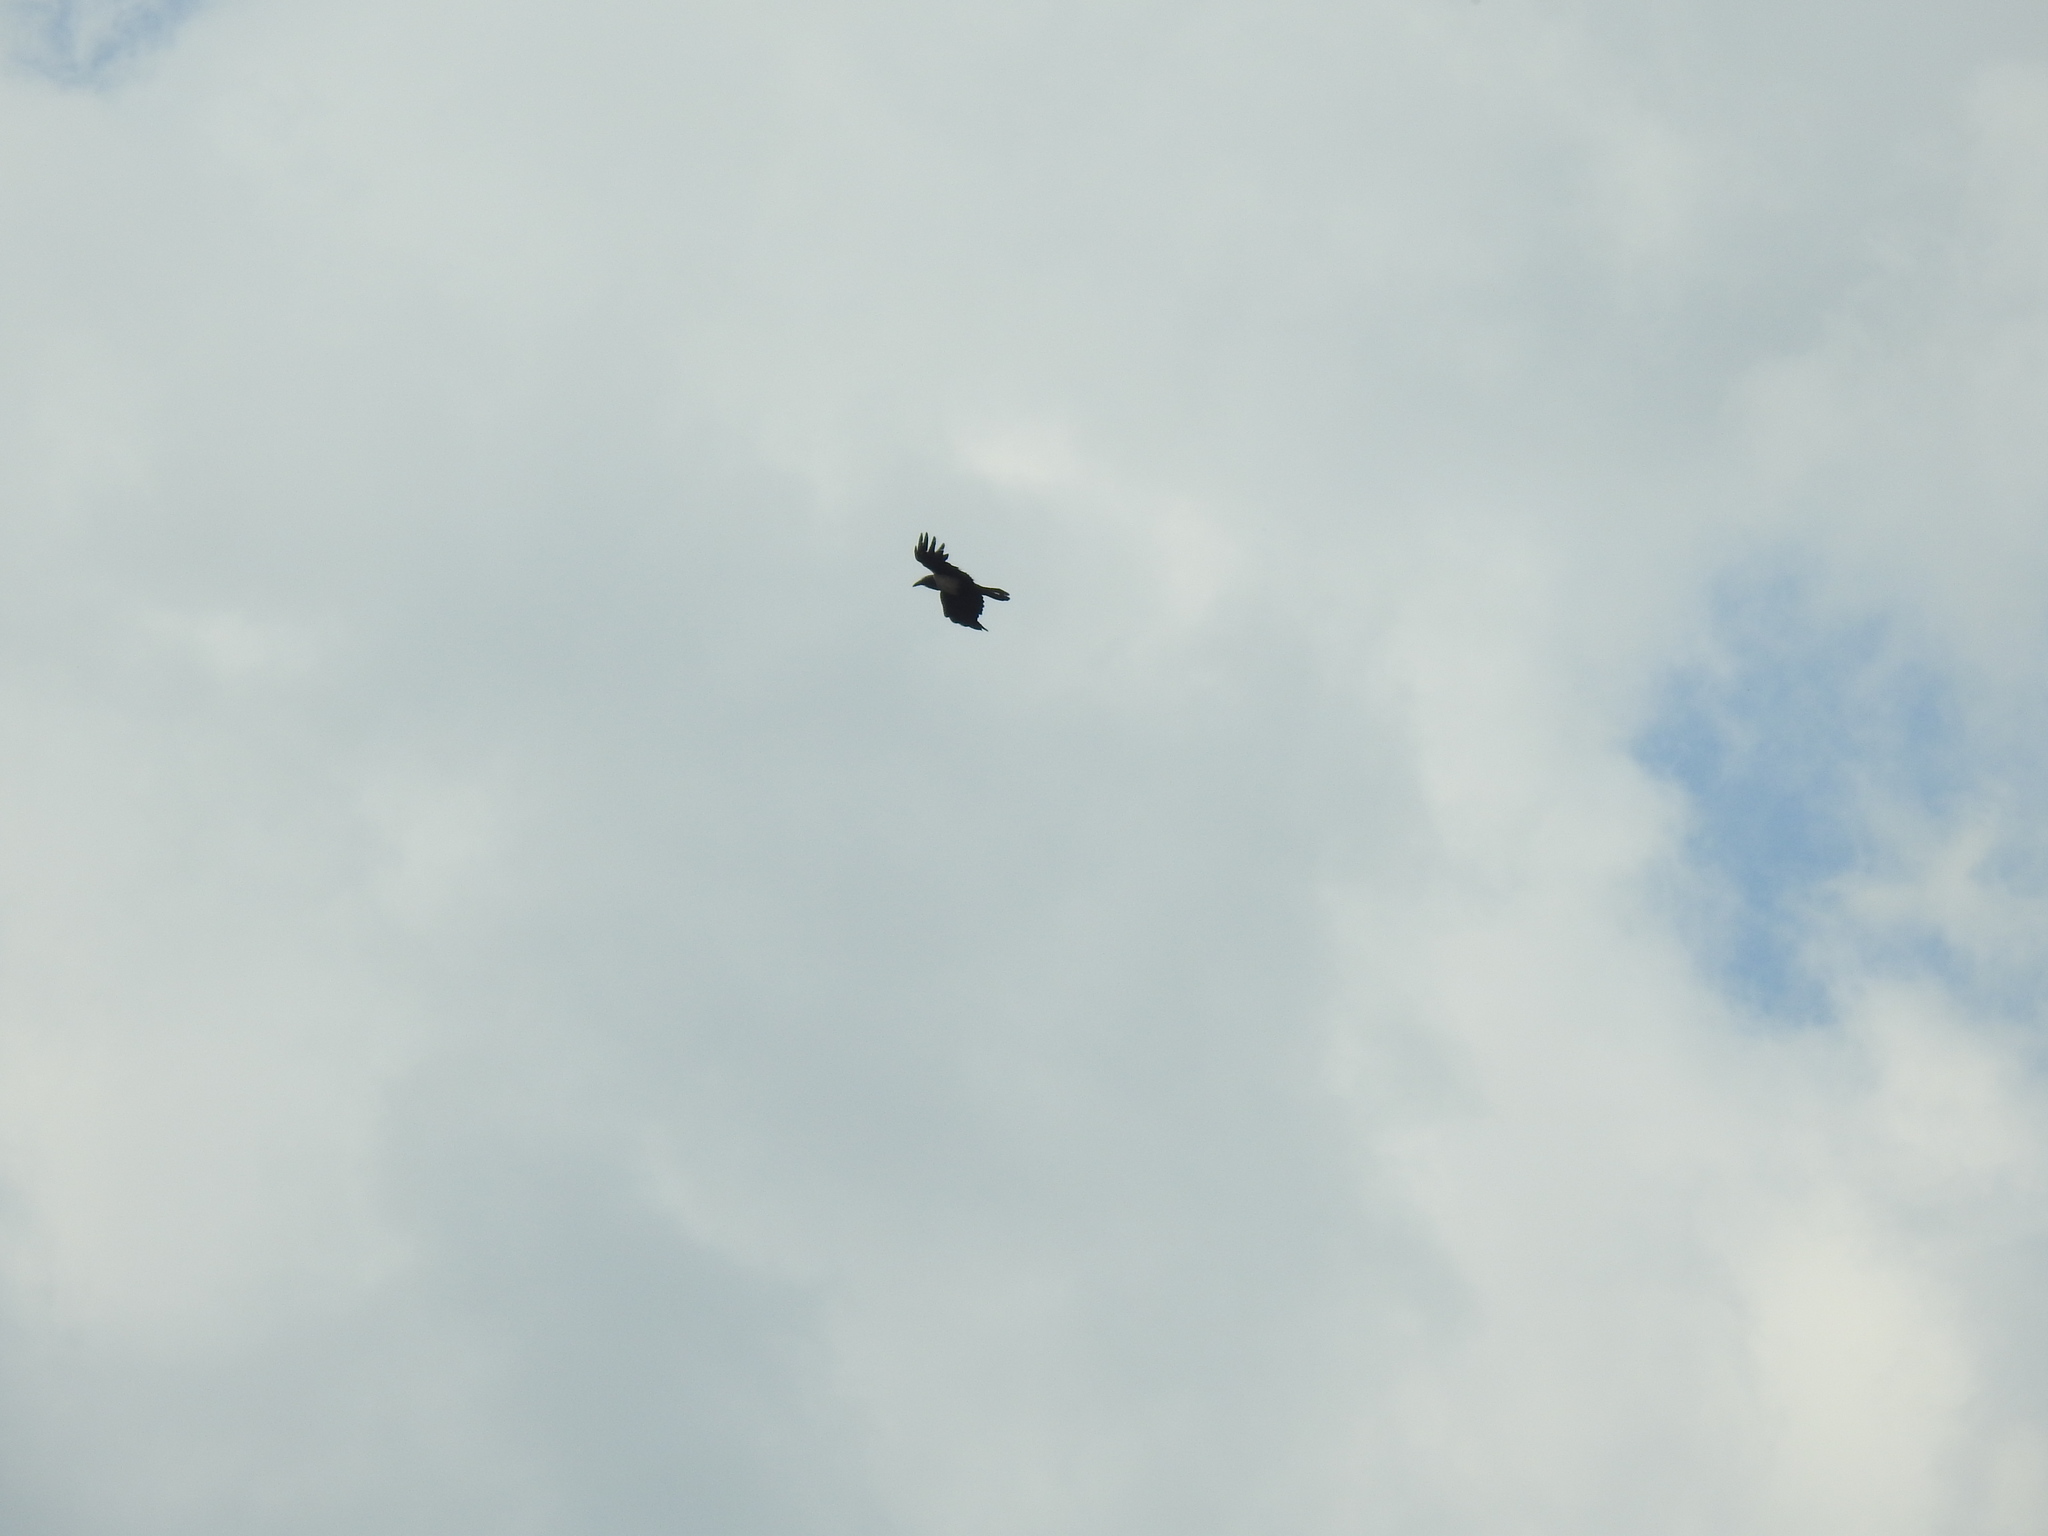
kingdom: Animalia
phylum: Chordata
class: Aves
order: Passeriformes
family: Corvidae
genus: Corvus
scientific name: Corvus albus
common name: Pied crow
